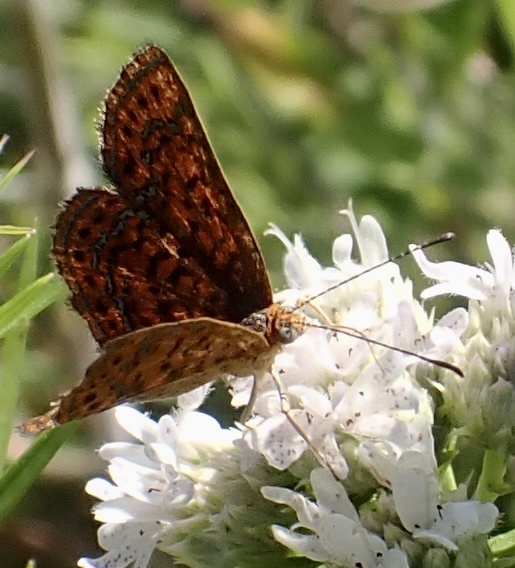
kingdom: Animalia
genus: Calephelis
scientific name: Calephelis virginiensis
